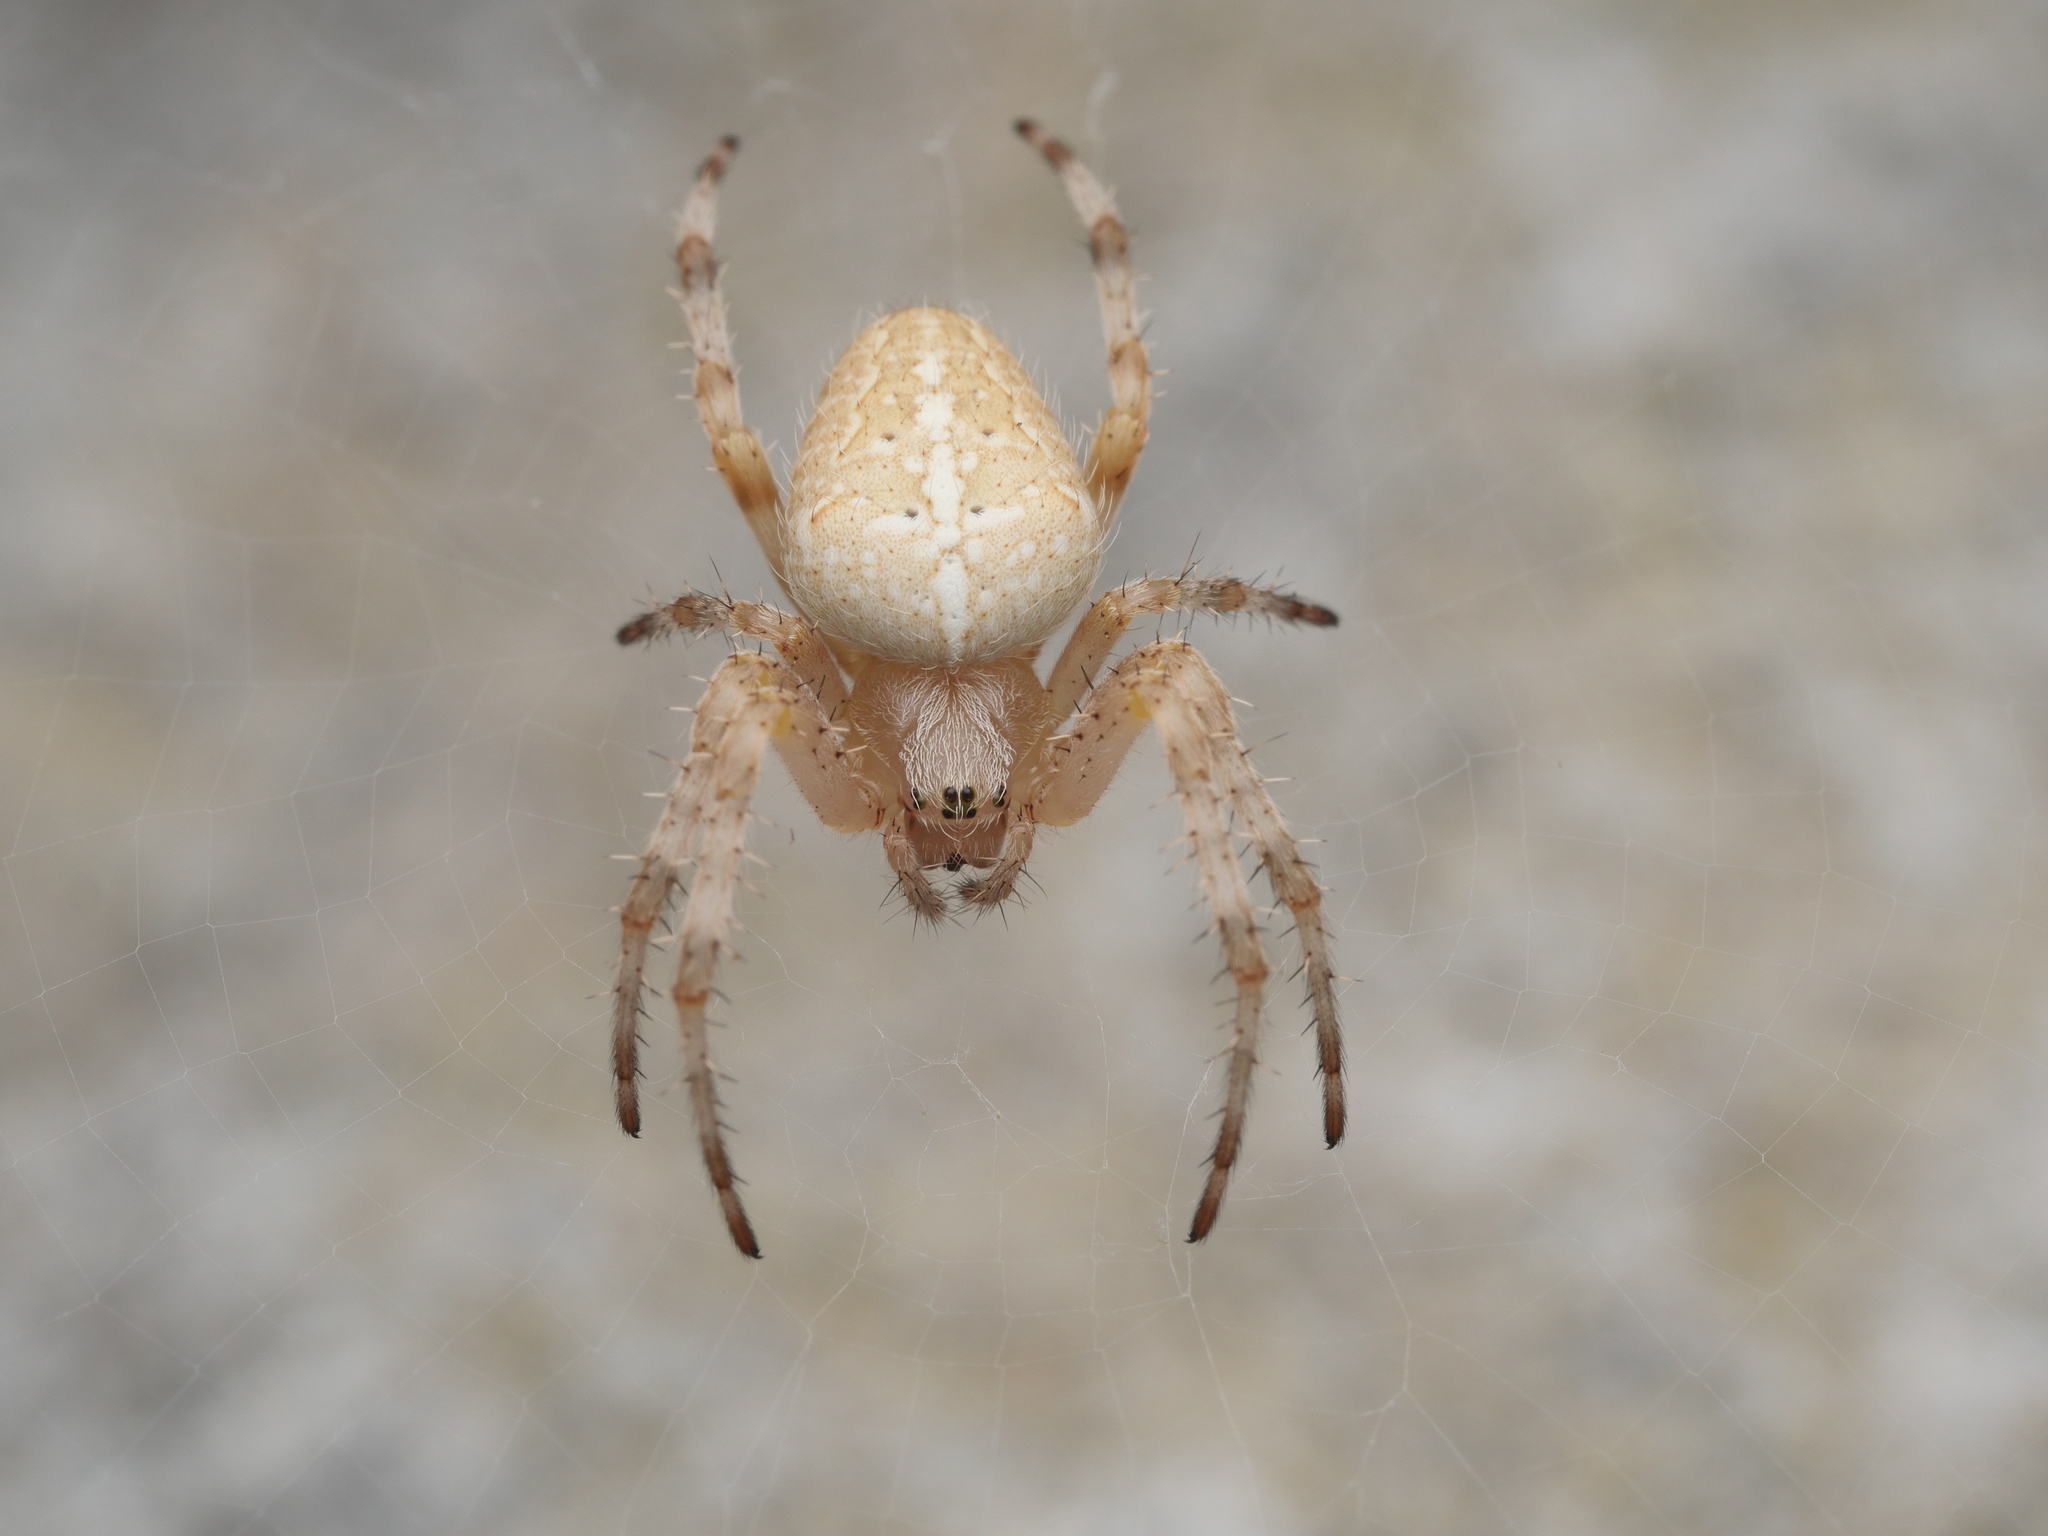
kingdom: Animalia
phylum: Arthropoda
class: Arachnida
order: Araneae
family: Araneidae
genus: Araneus
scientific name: Araneus diadematus
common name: Cross orbweaver
